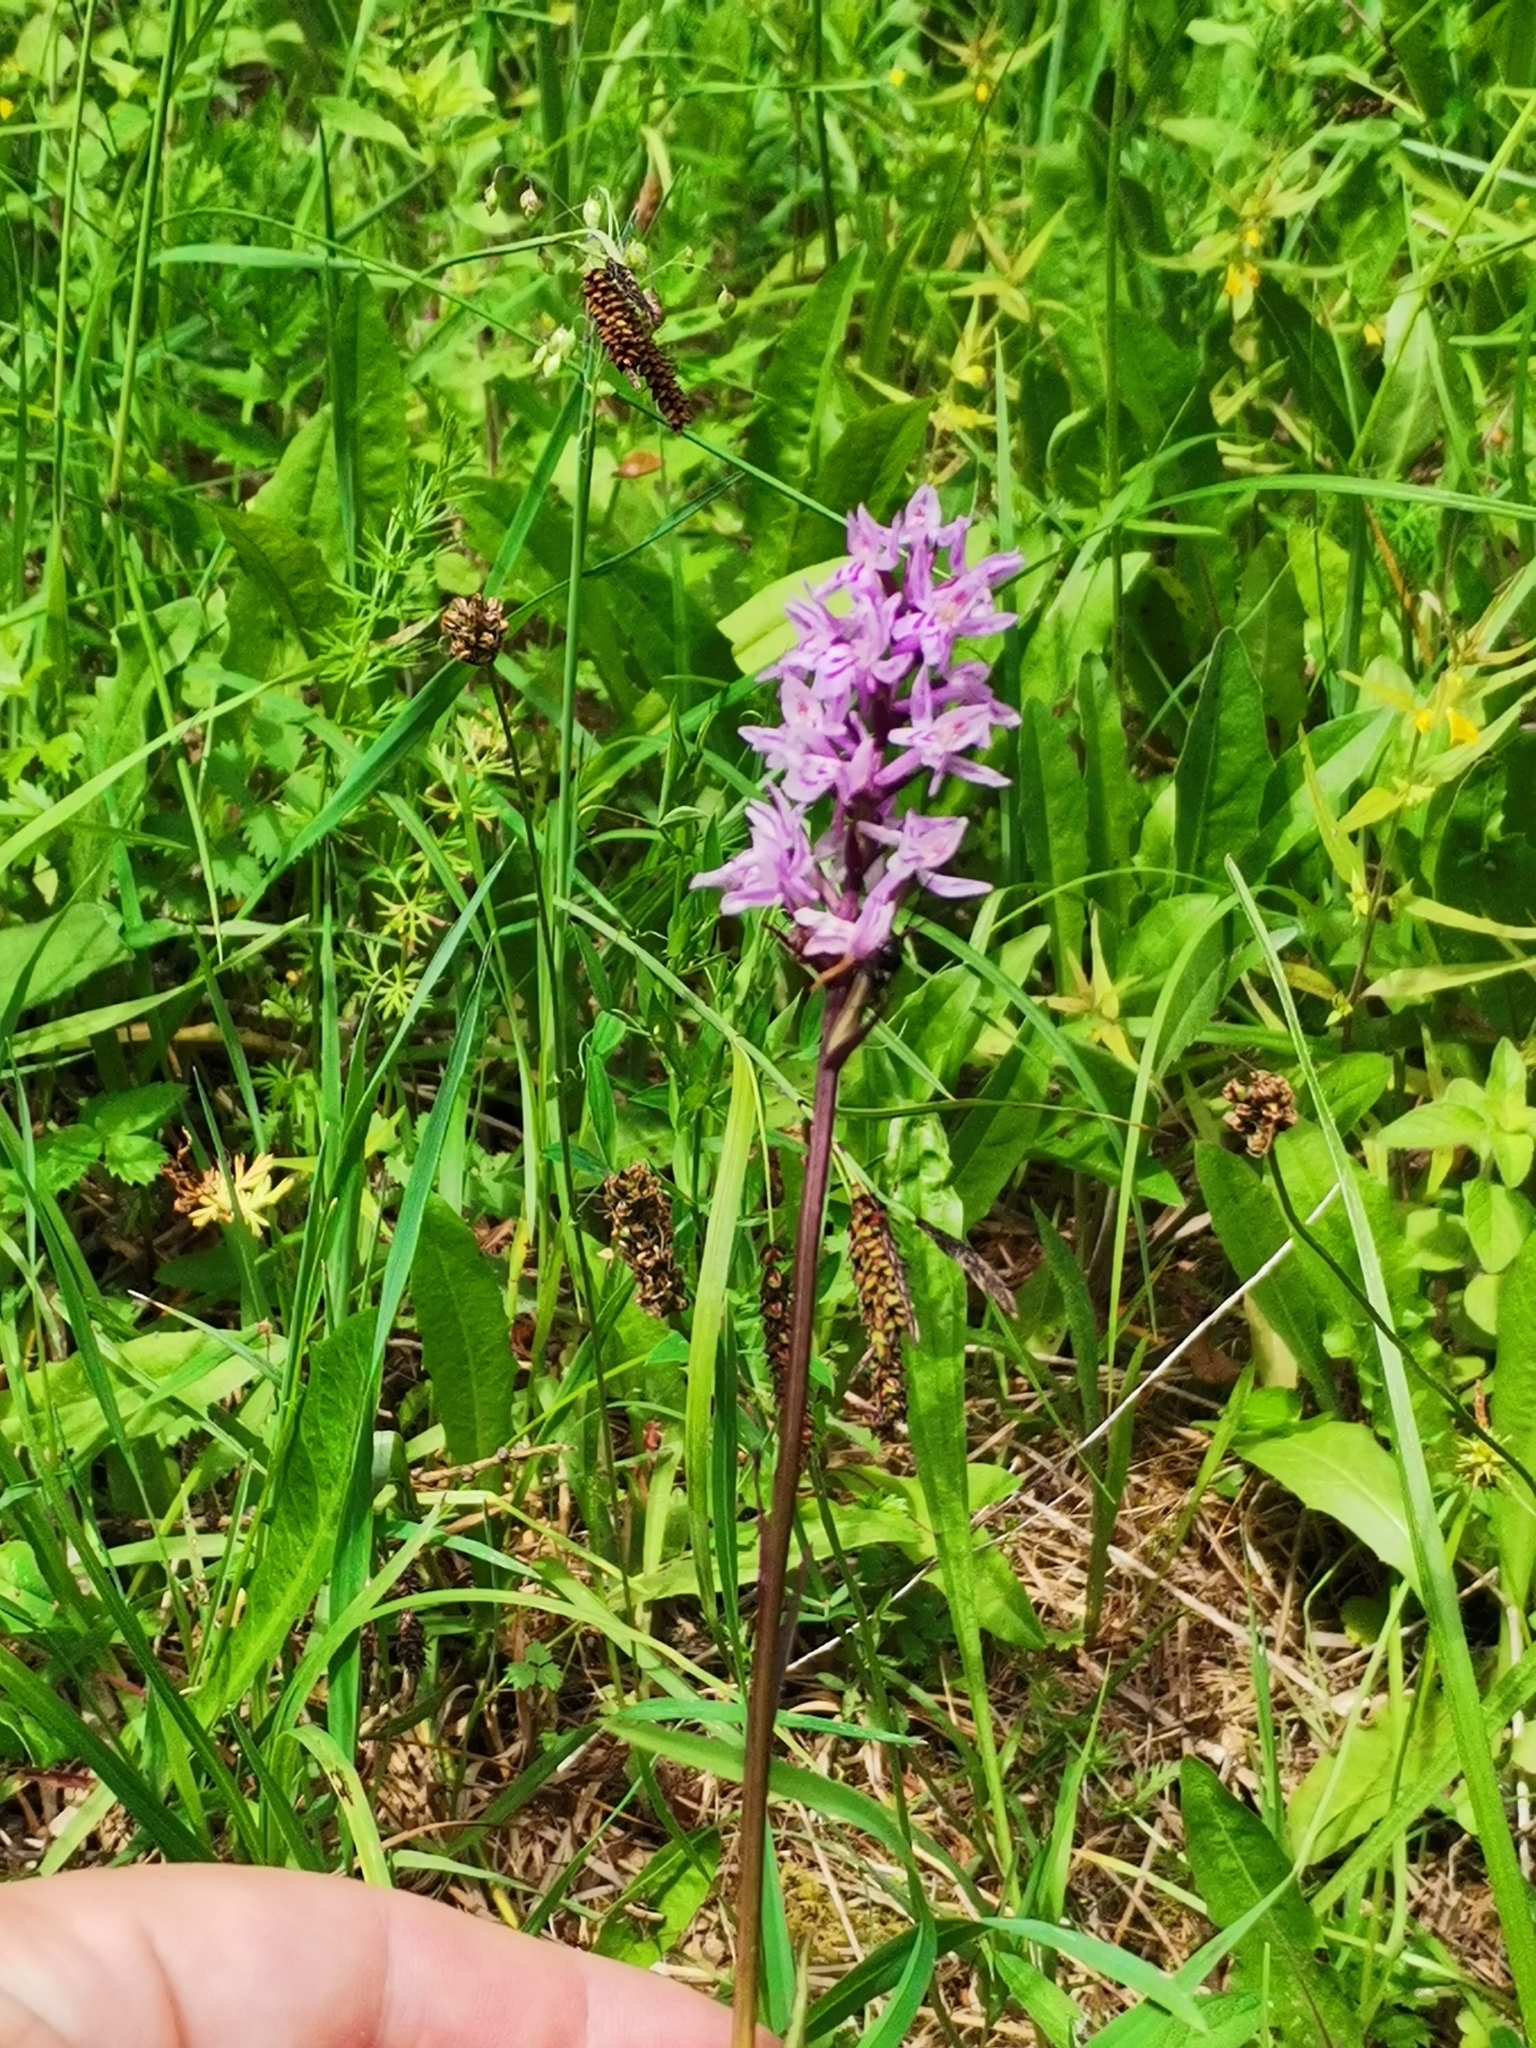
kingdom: Plantae
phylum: Tracheophyta
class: Liliopsida
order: Asparagales
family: Orchidaceae
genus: Dactylorhiza
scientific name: Dactylorhiza maculata
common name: Heath spotted-orchid
